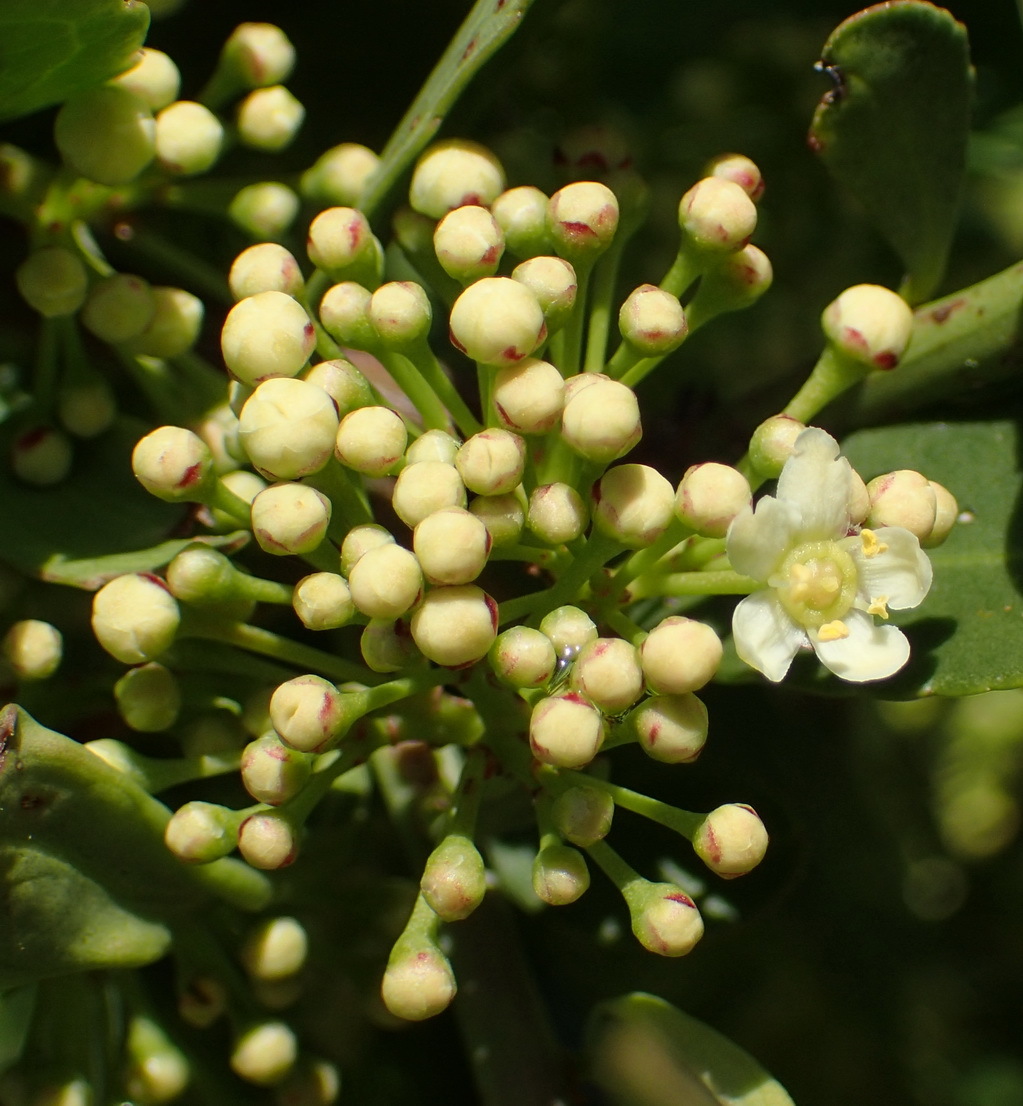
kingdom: Plantae
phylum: Tracheophyta
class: Magnoliopsida
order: Celastrales
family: Celastraceae
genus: Gymnosporia
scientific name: Gymnosporia nemorosa
